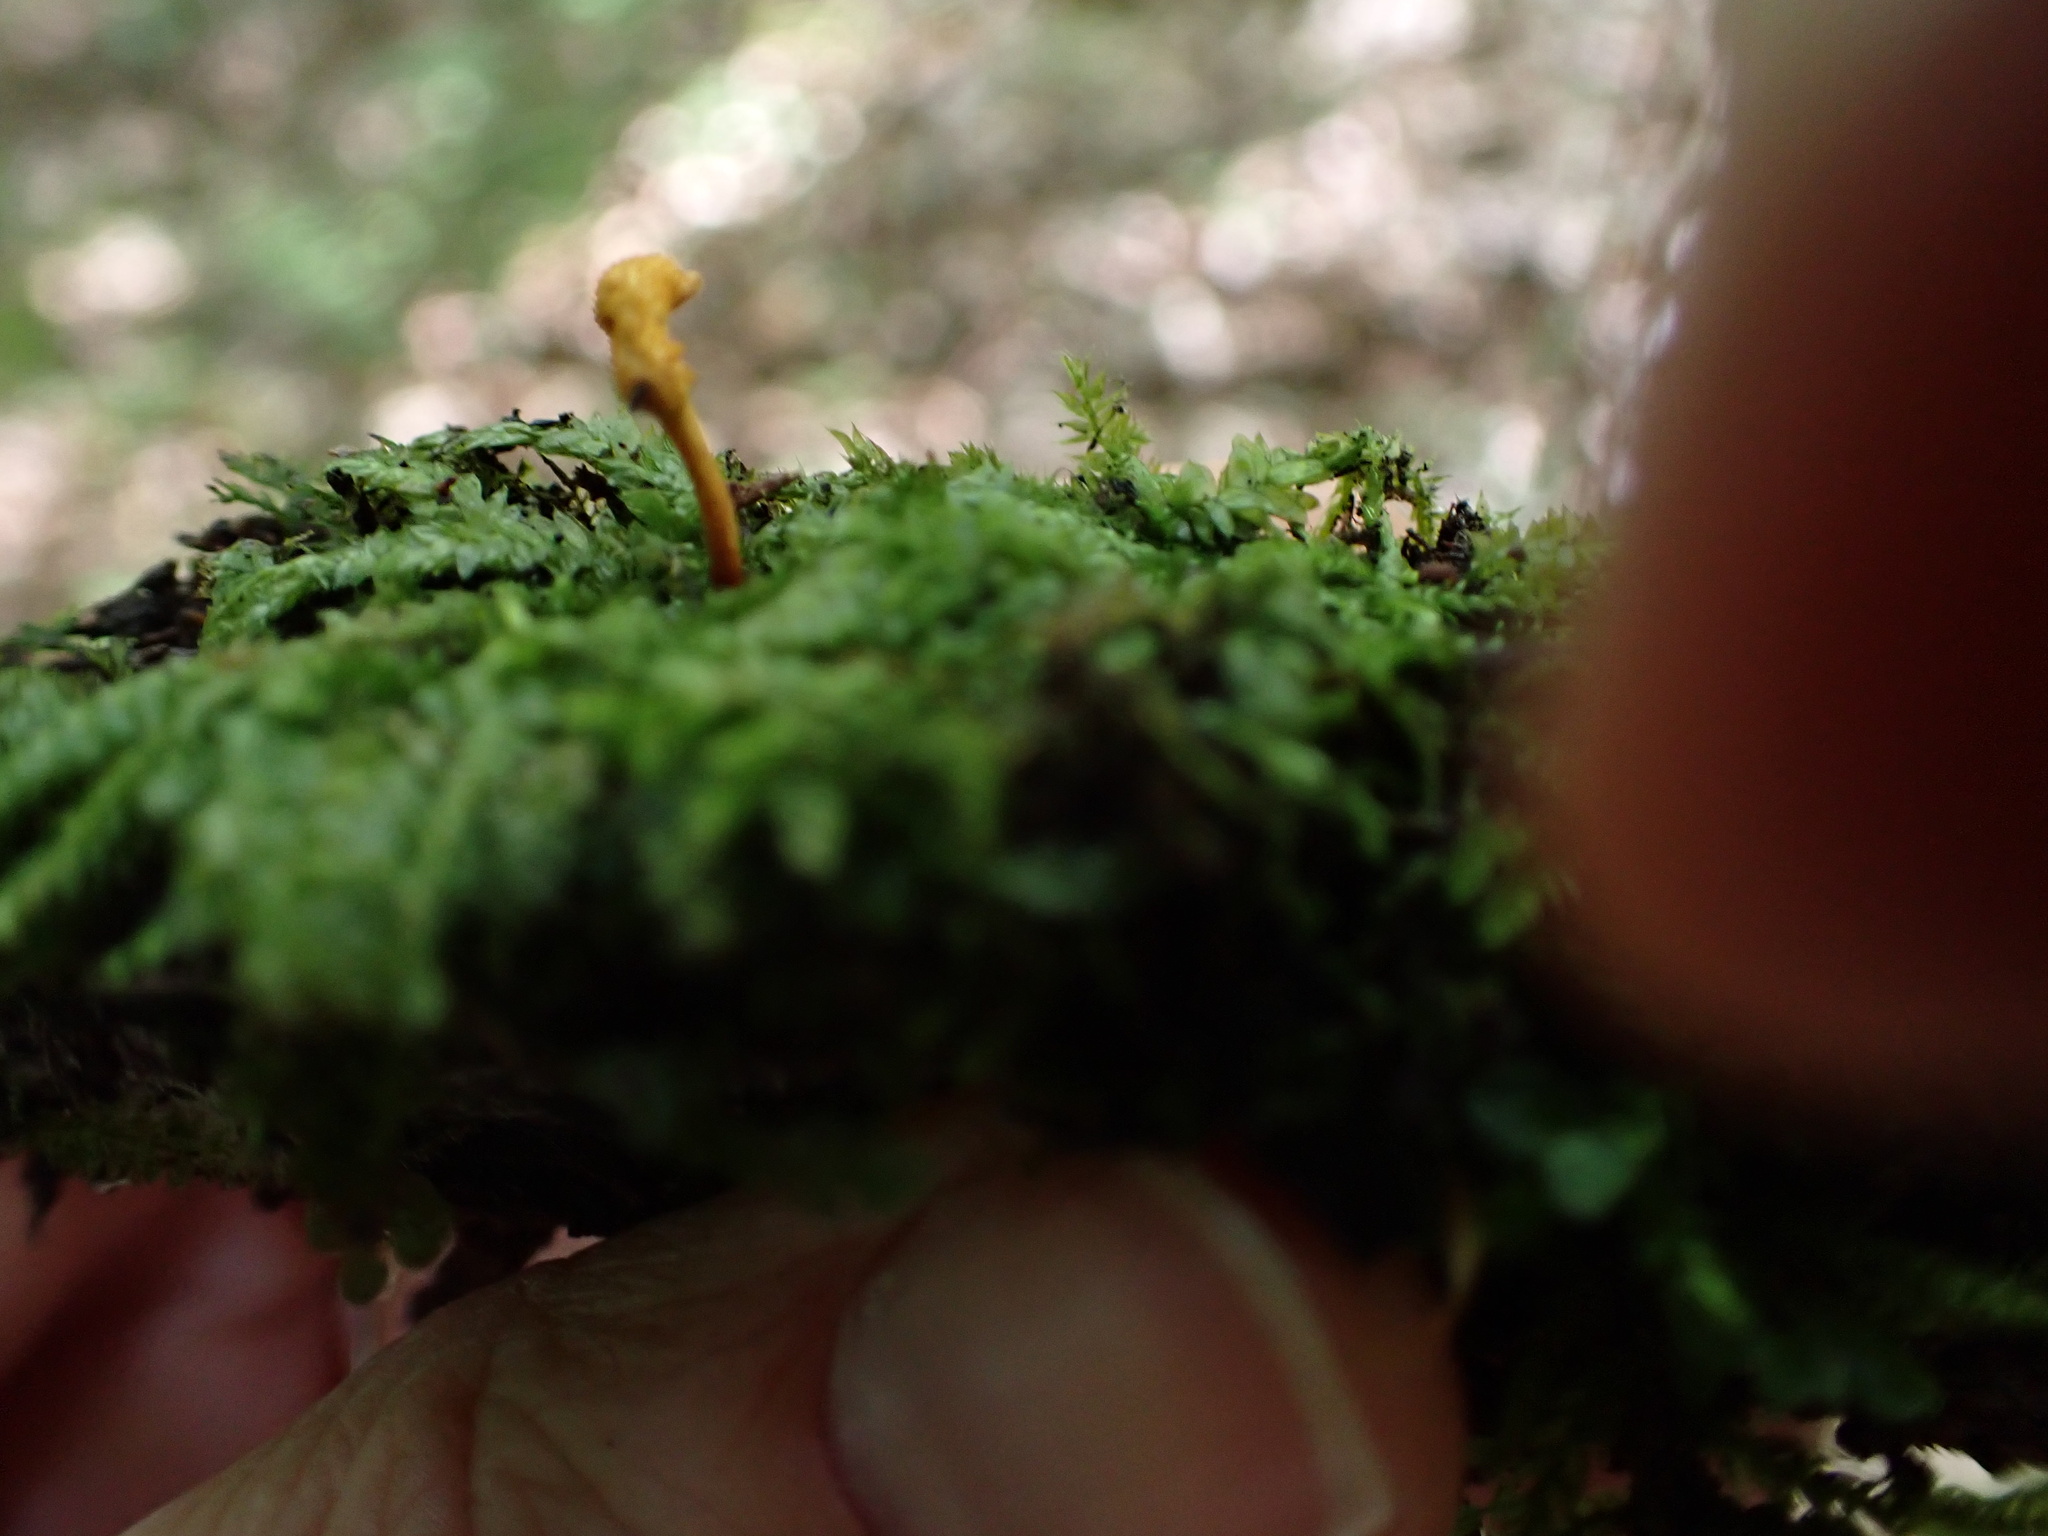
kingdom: Fungi
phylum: Ascomycota
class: Sordariomycetes
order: Hypocreales
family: Ophiocordycipitaceae
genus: Ophiocordyceps
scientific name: Ophiocordyceps variabilis
